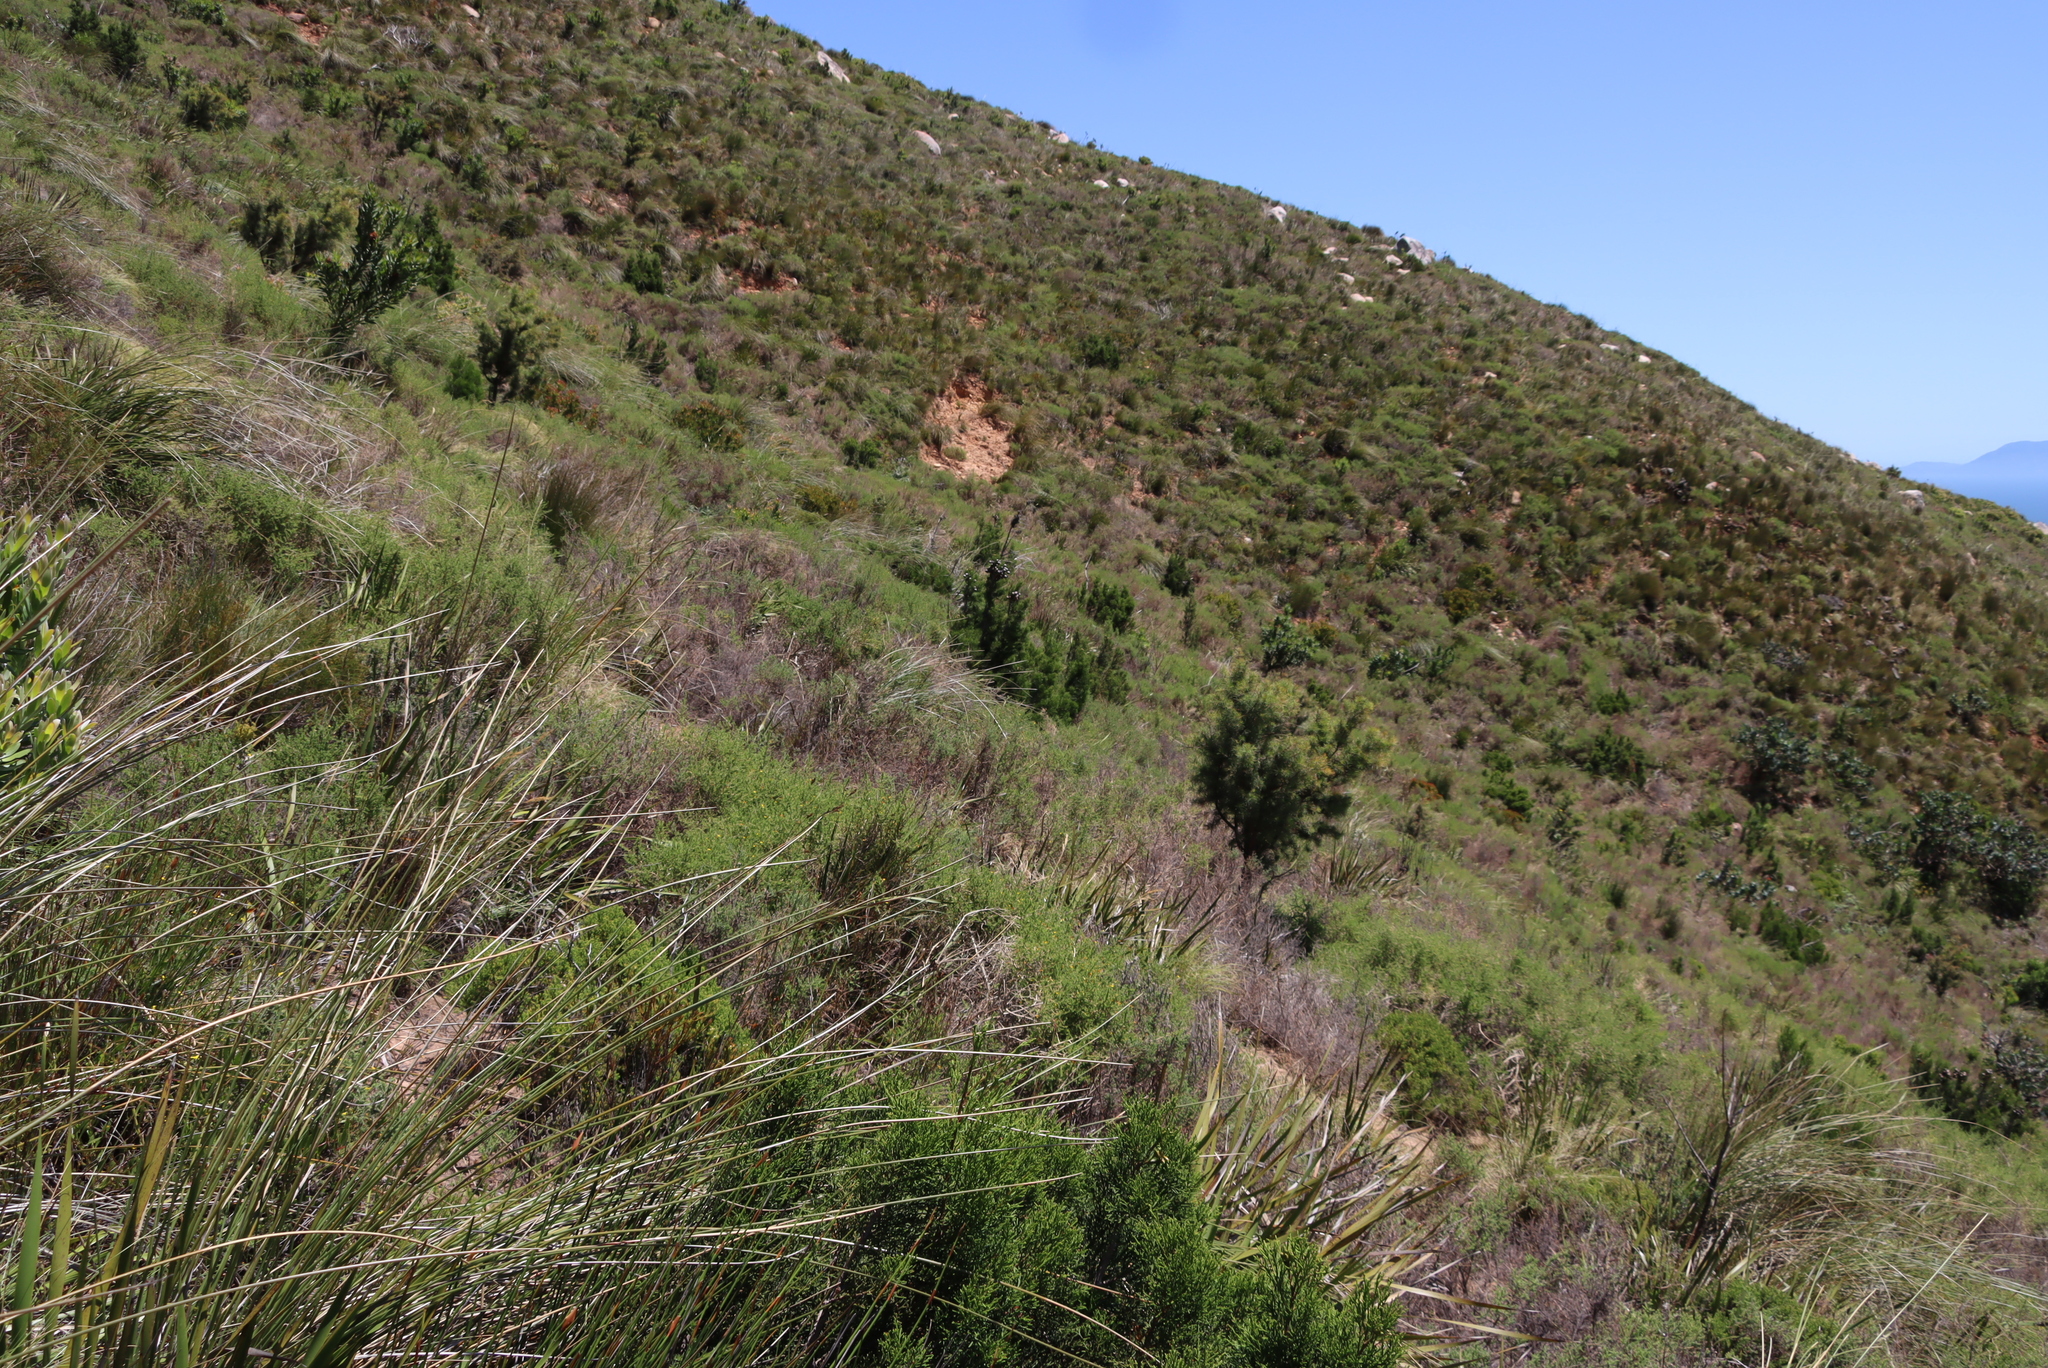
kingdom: Plantae
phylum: Tracheophyta
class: Magnoliopsida
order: Proteales
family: Proteaceae
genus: Hakea
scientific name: Hakea sericea
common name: Needle bush
